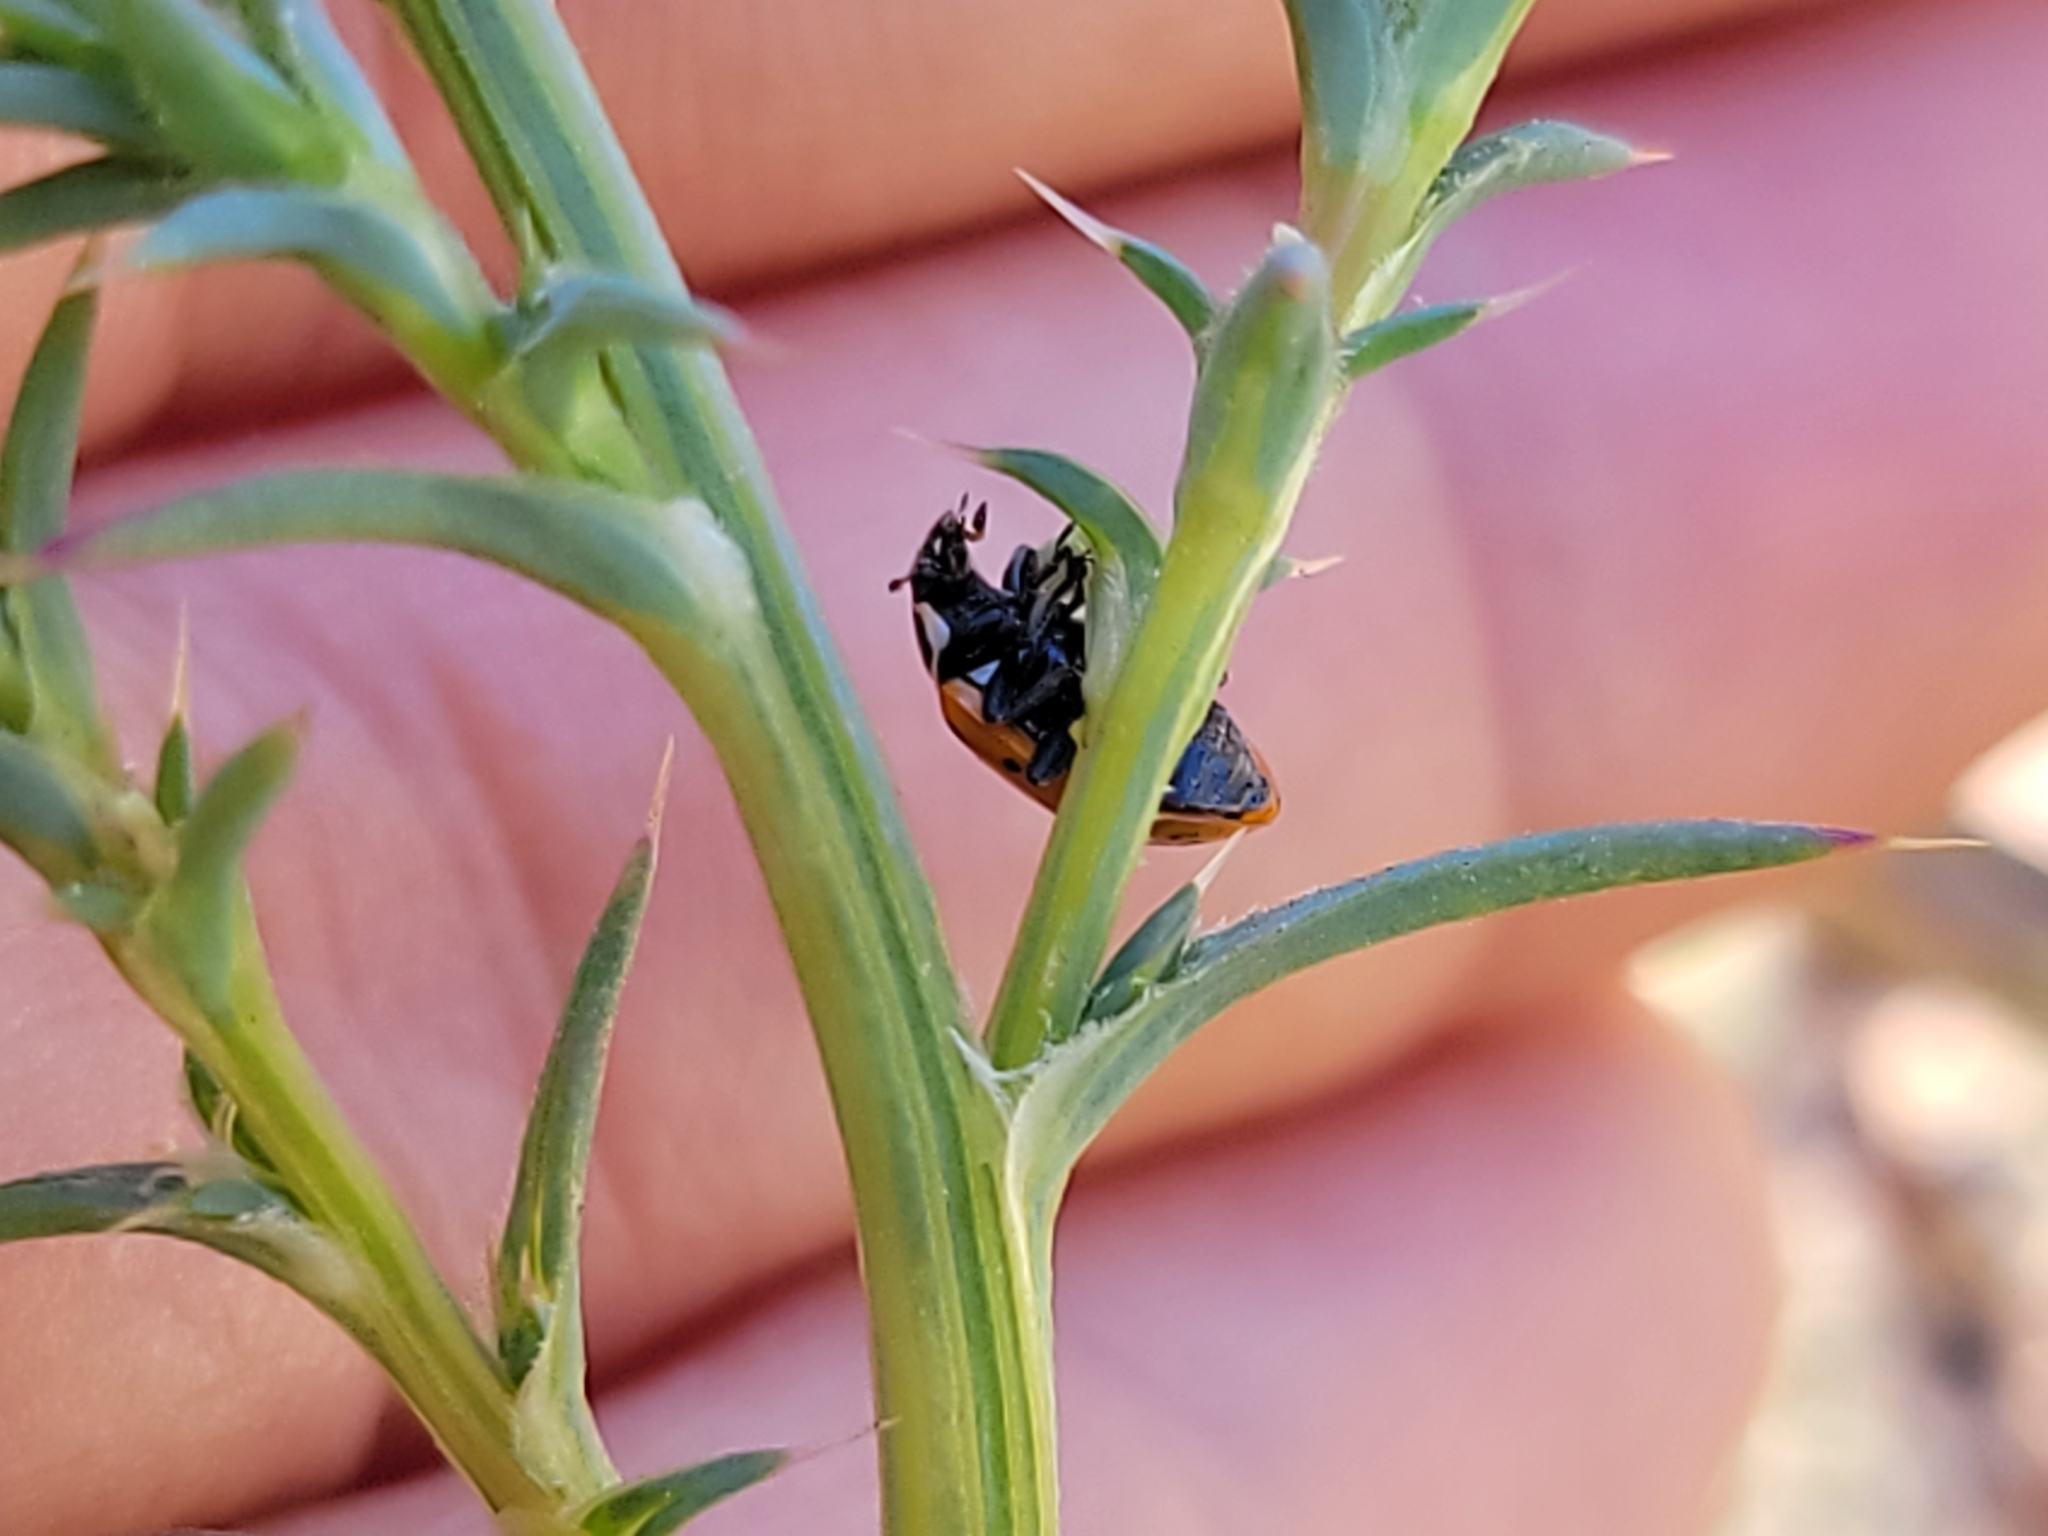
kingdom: Animalia
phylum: Arthropoda
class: Insecta
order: Coleoptera
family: Coccinellidae
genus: Hippodamia
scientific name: Hippodamia convergens
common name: Convergent lady beetle
